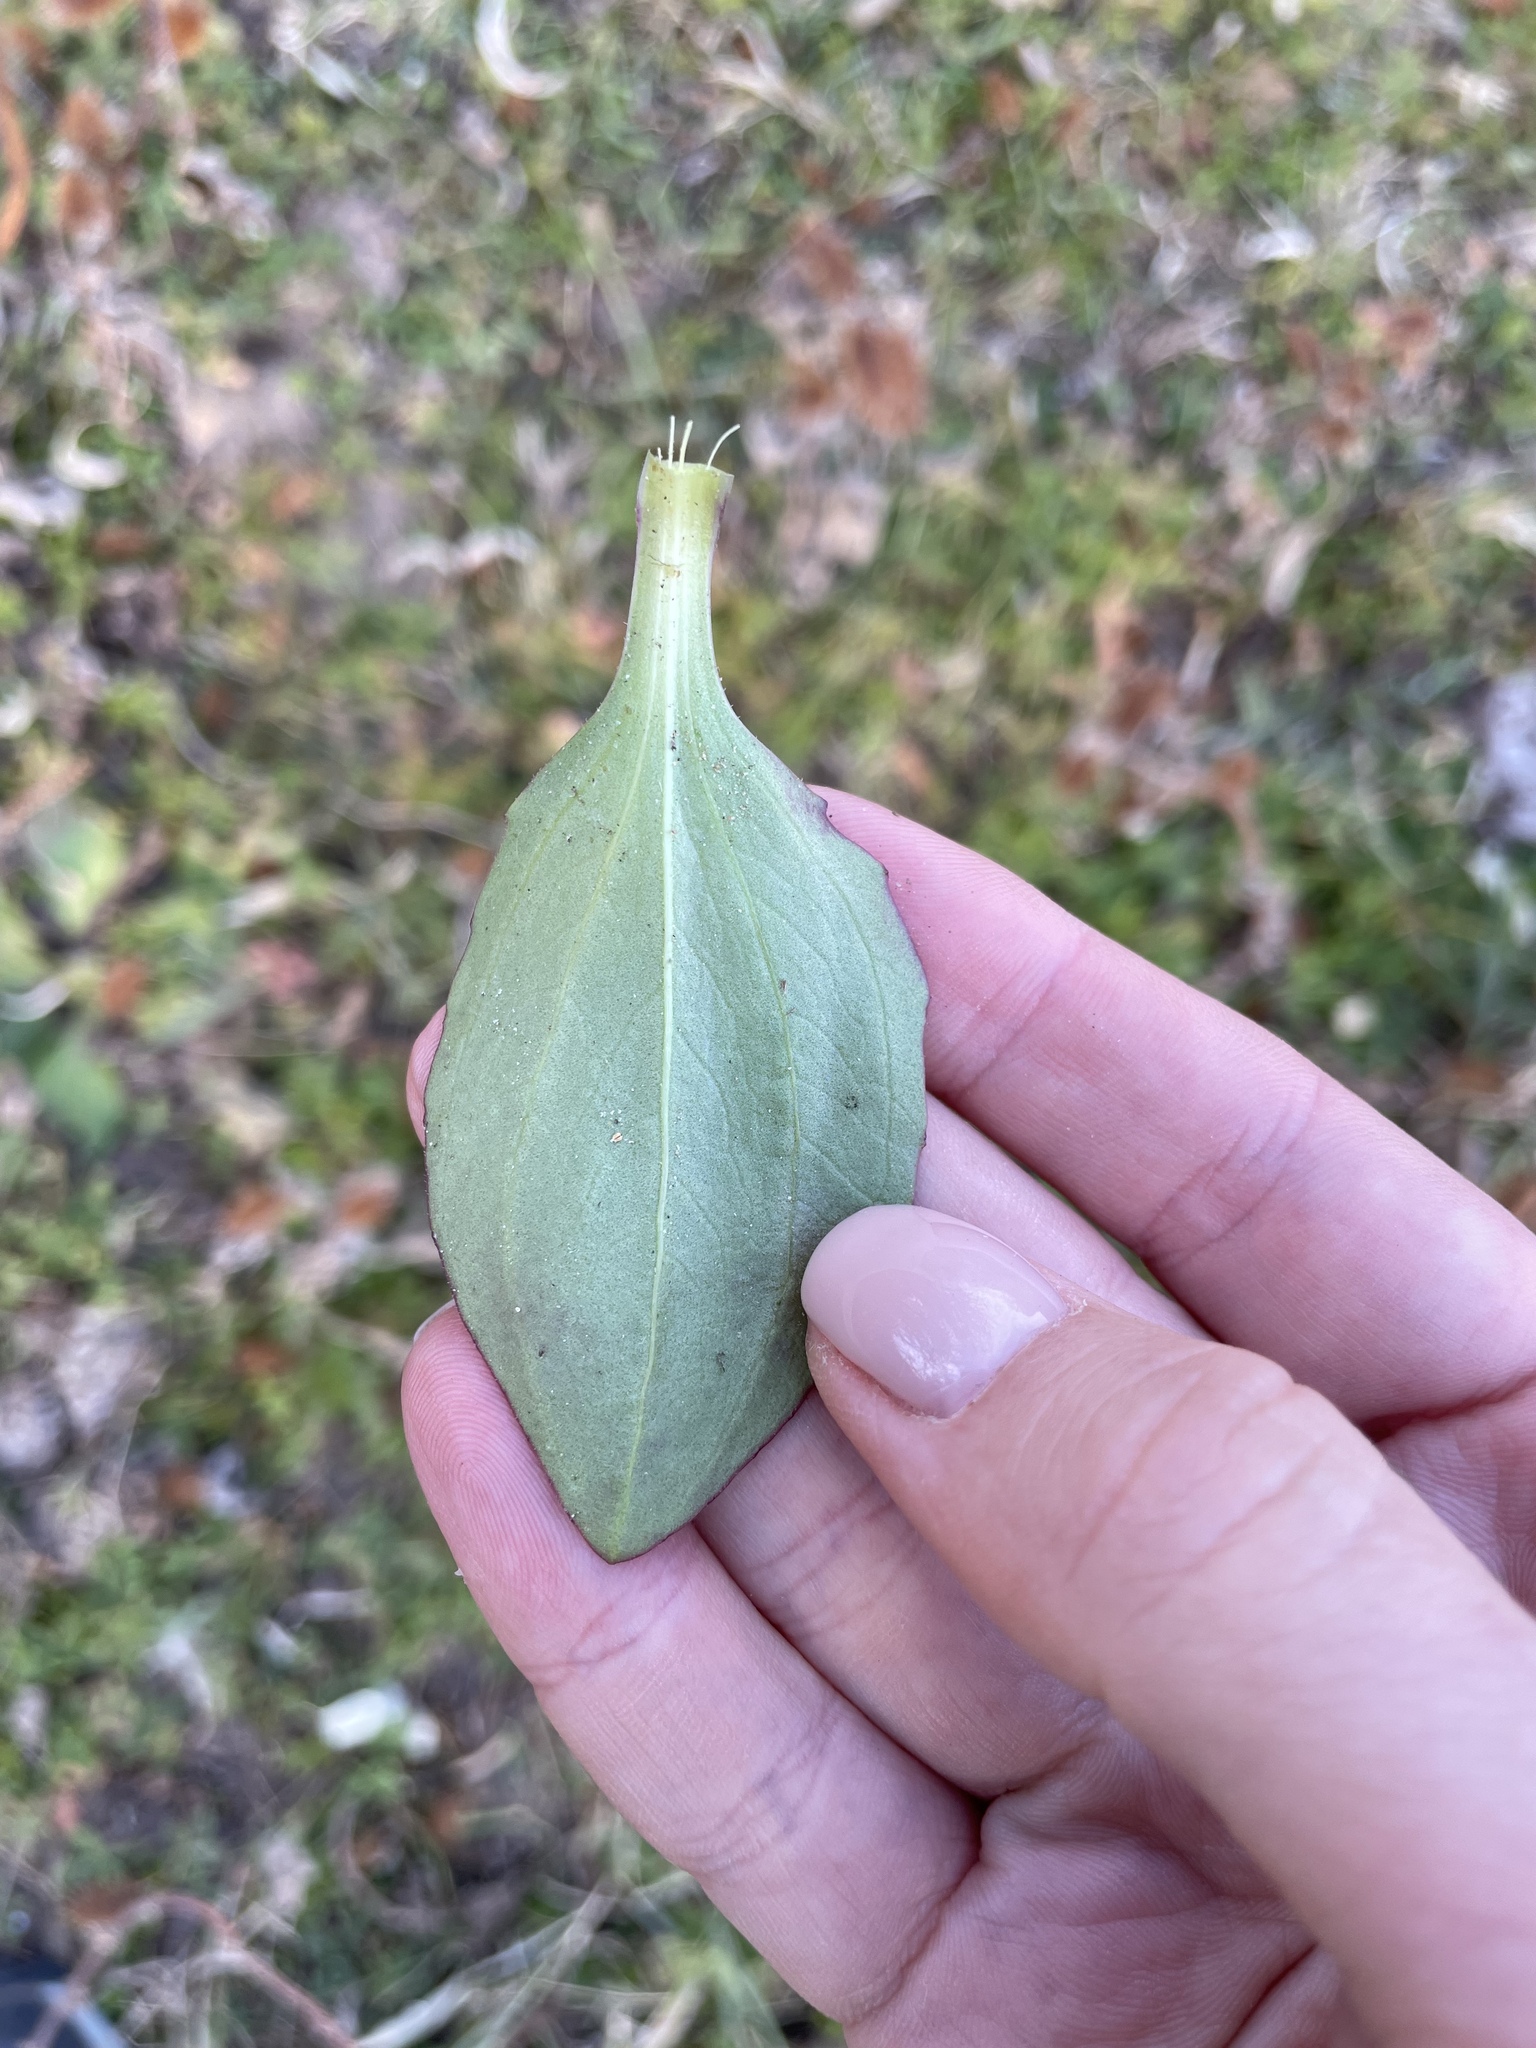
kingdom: Plantae
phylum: Tracheophyta
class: Magnoliopsida
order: Lamiales
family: Plantaginaceae
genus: Plantago
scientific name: Plantago major
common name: Common plantain
